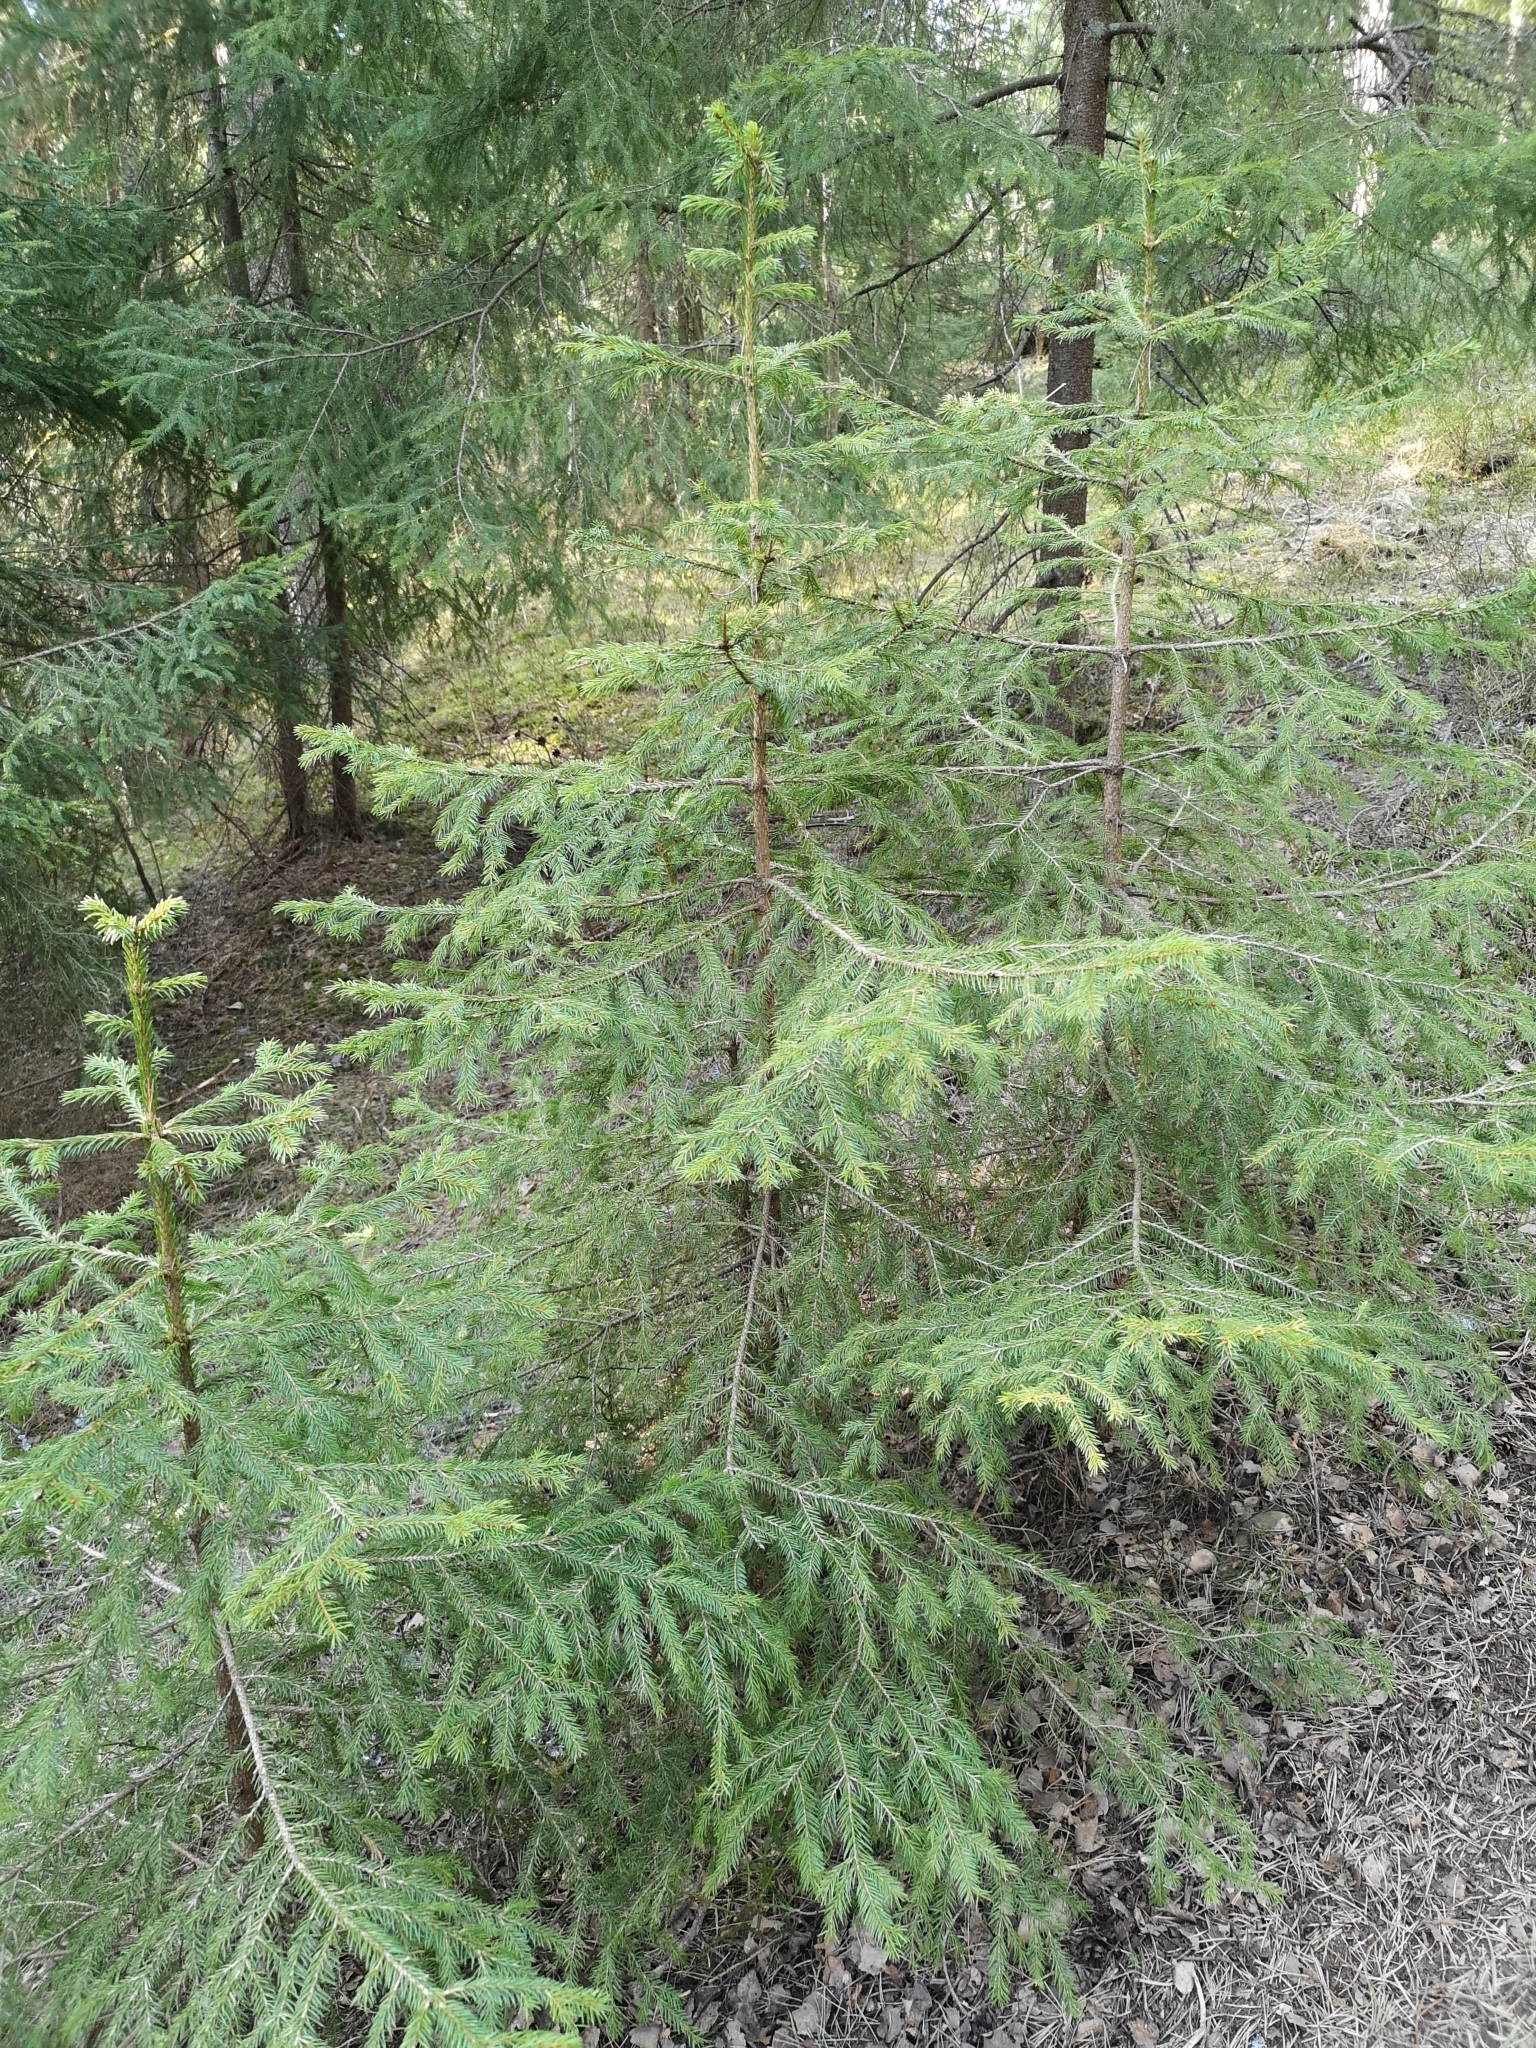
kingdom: Plantae
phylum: Tracheophyta
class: Pinopsida
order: Pinales
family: Pinaceae
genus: Picea
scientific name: Picea abies
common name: Norway spruce
